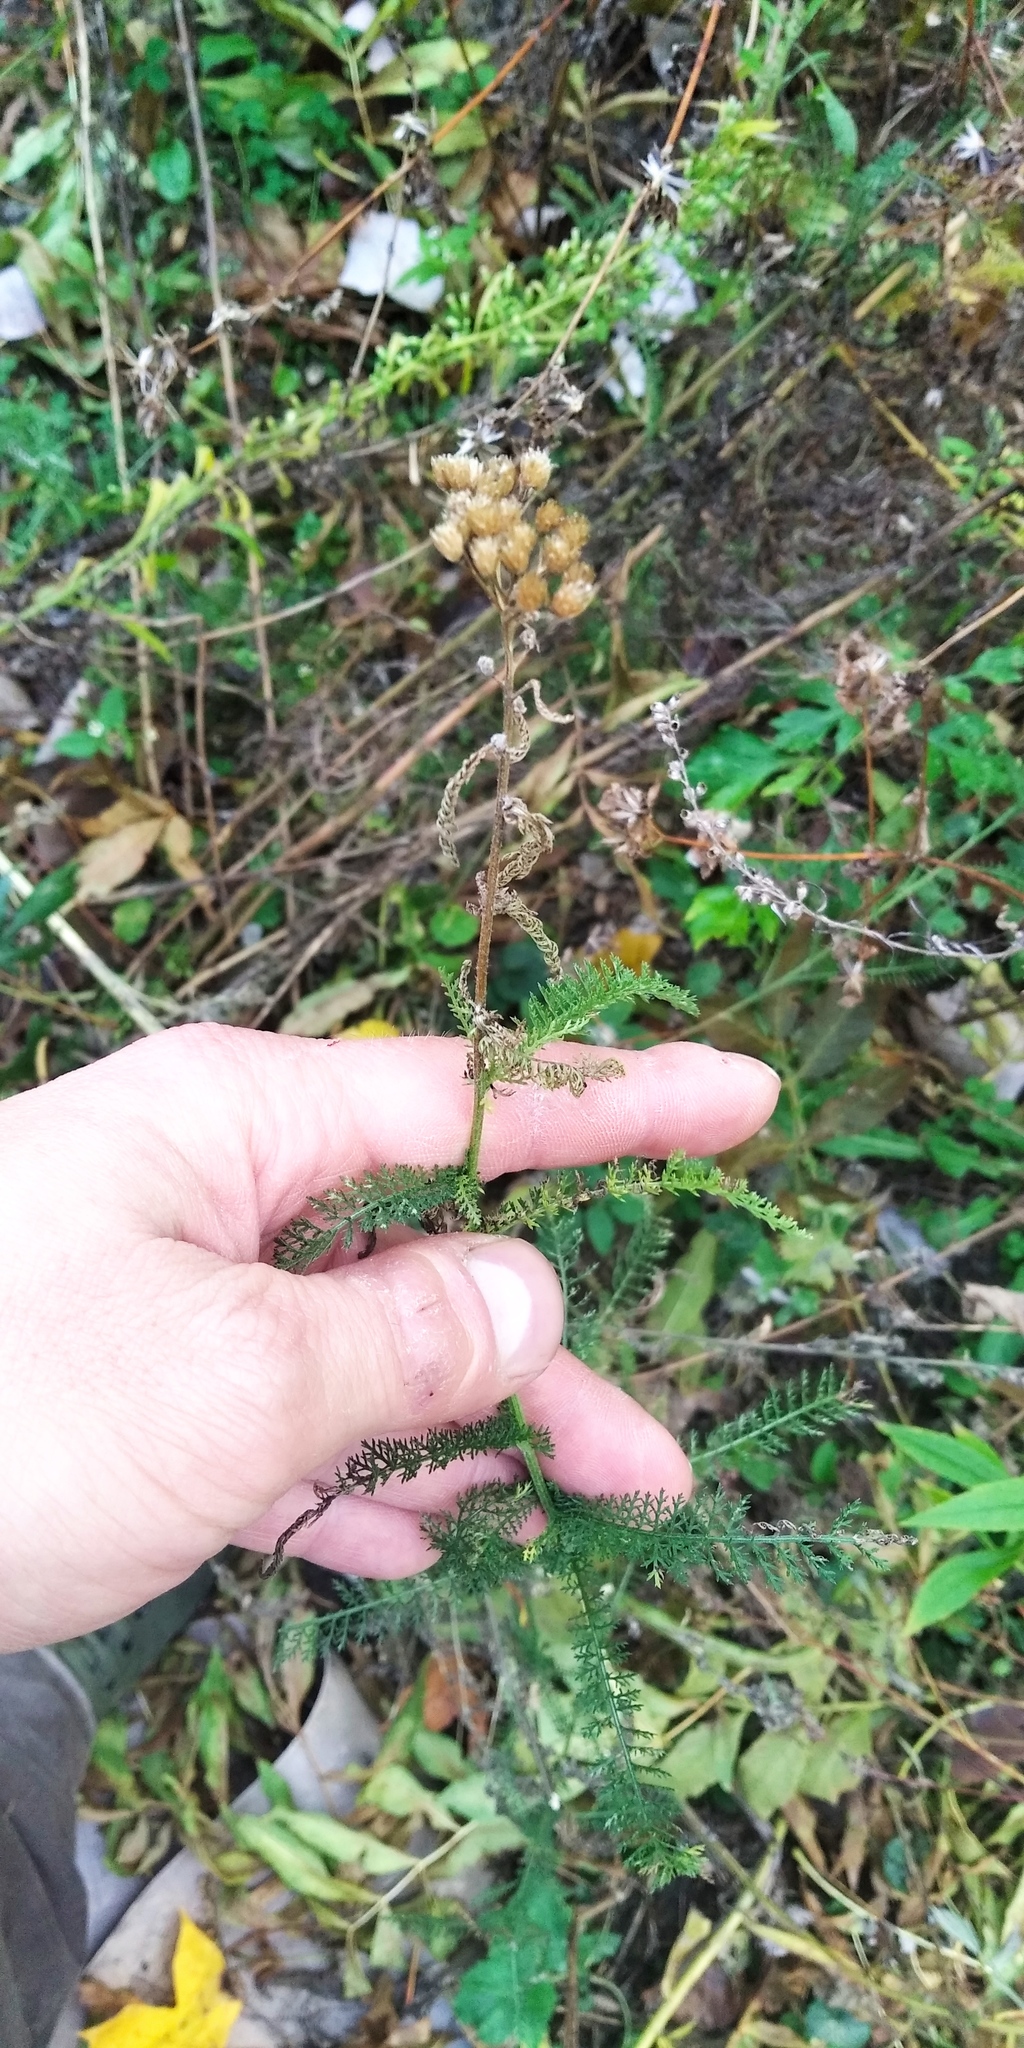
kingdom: Plantae
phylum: Tracheophyta
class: Magnoliopsida
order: Asterales
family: Asteraceae
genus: Achillea
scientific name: Achillea millefolium
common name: Yarrow
